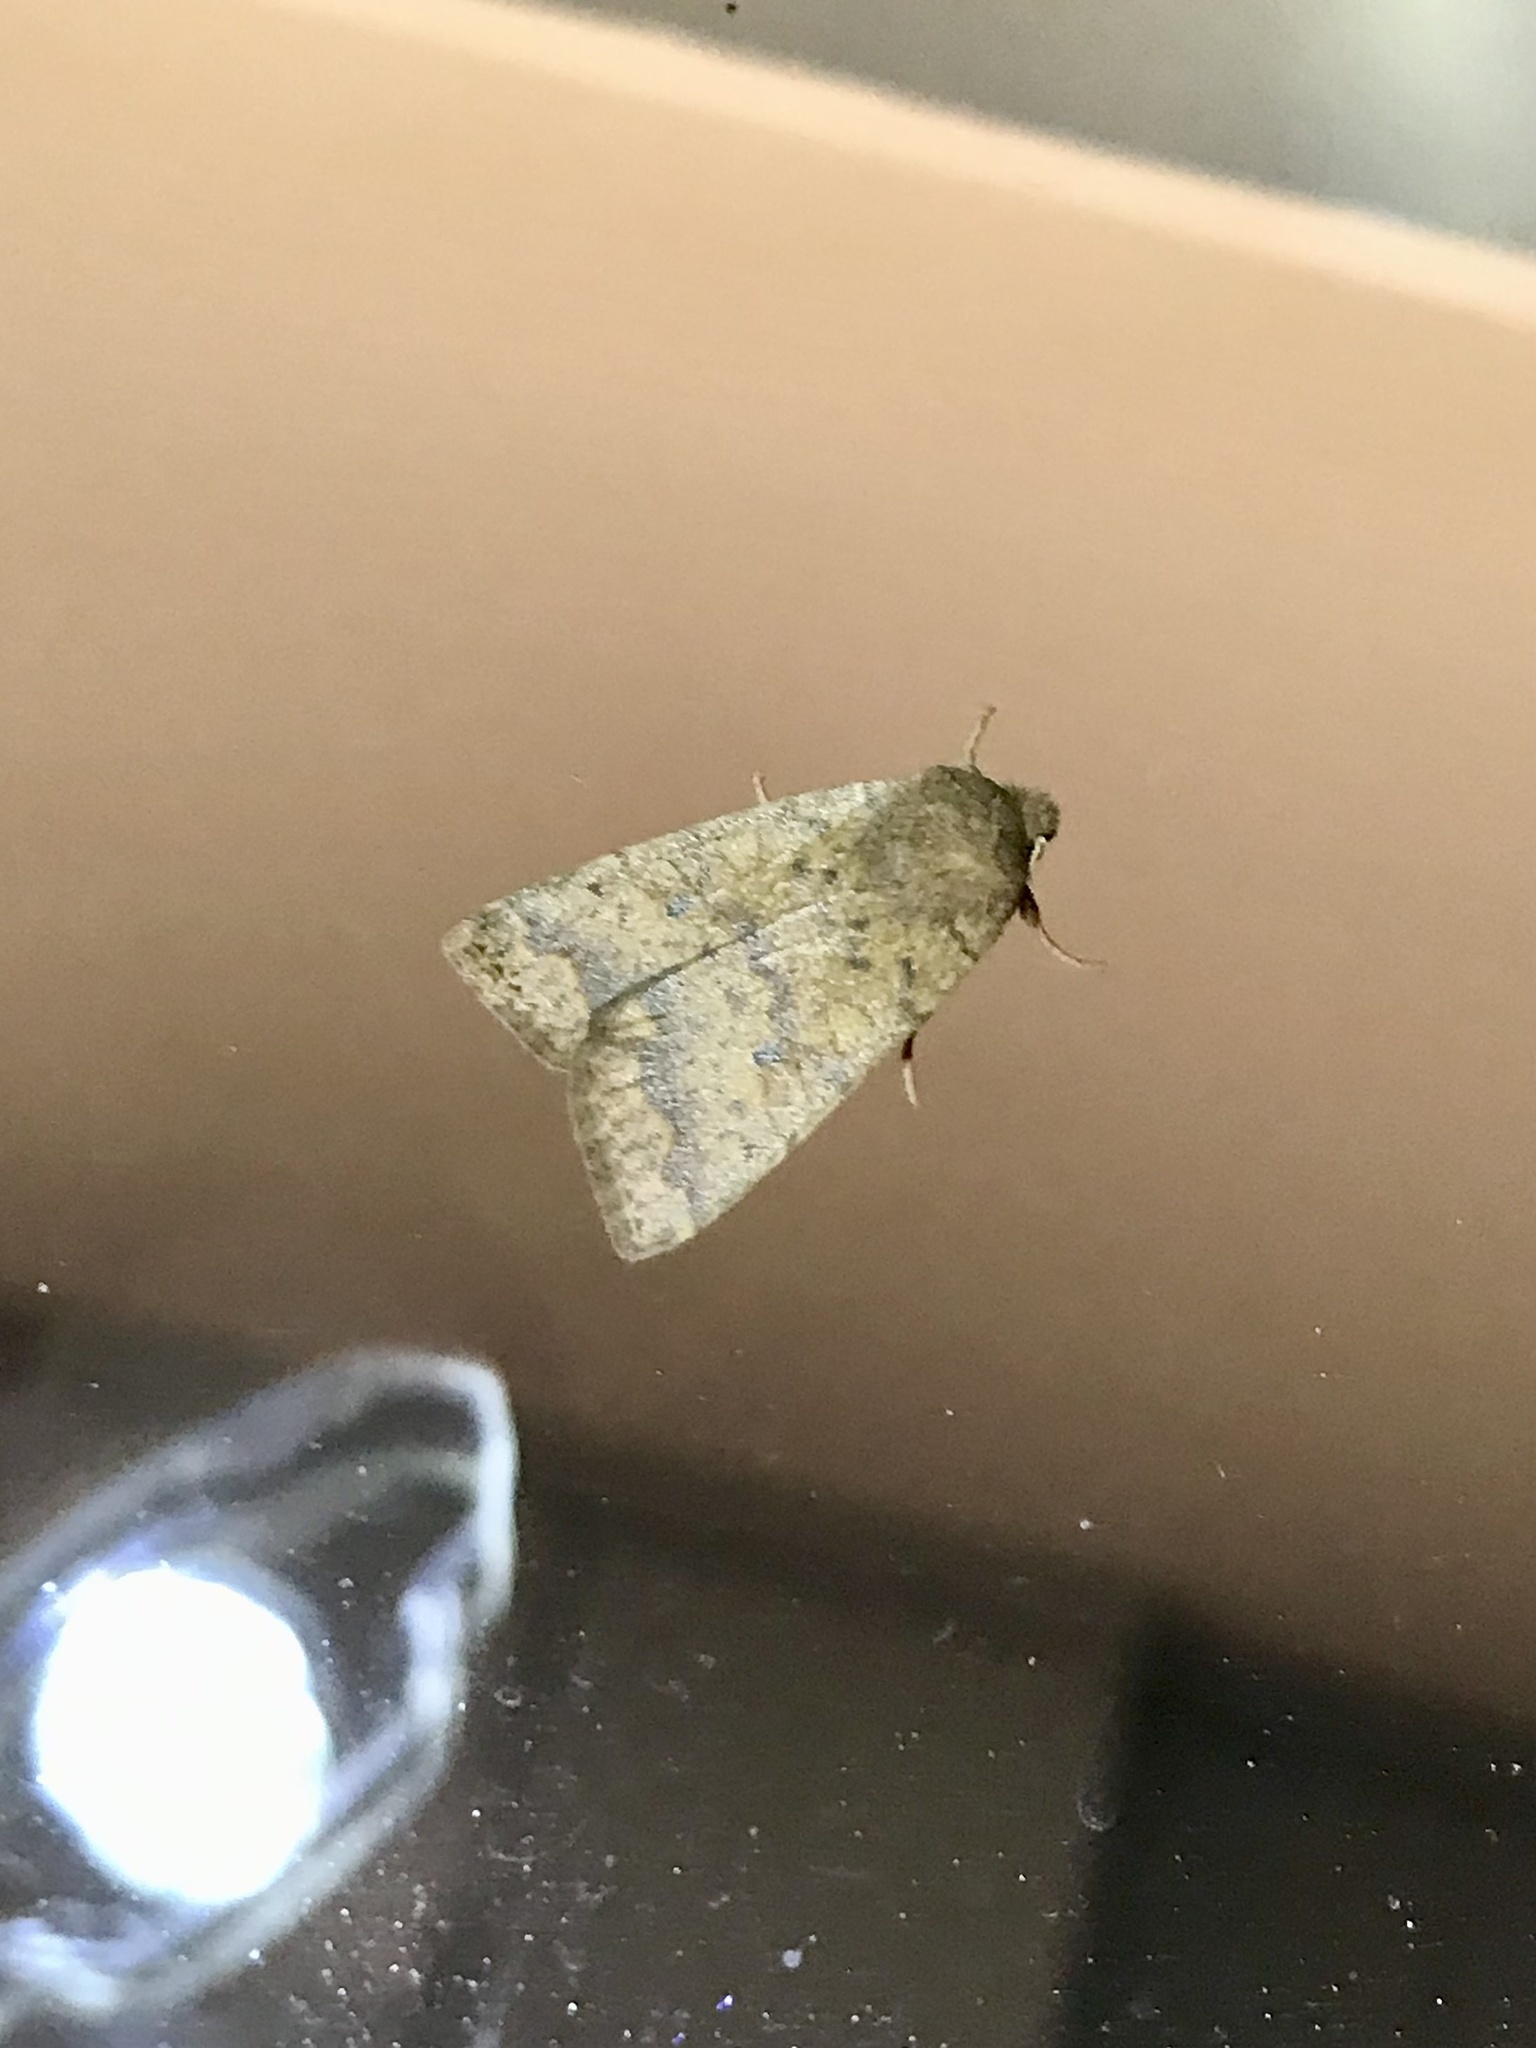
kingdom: Animalia
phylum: Arthropoda
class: Insecta
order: Lepidoptera
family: Noctuidae
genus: Agrochola
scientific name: Agrochola bicolorago
